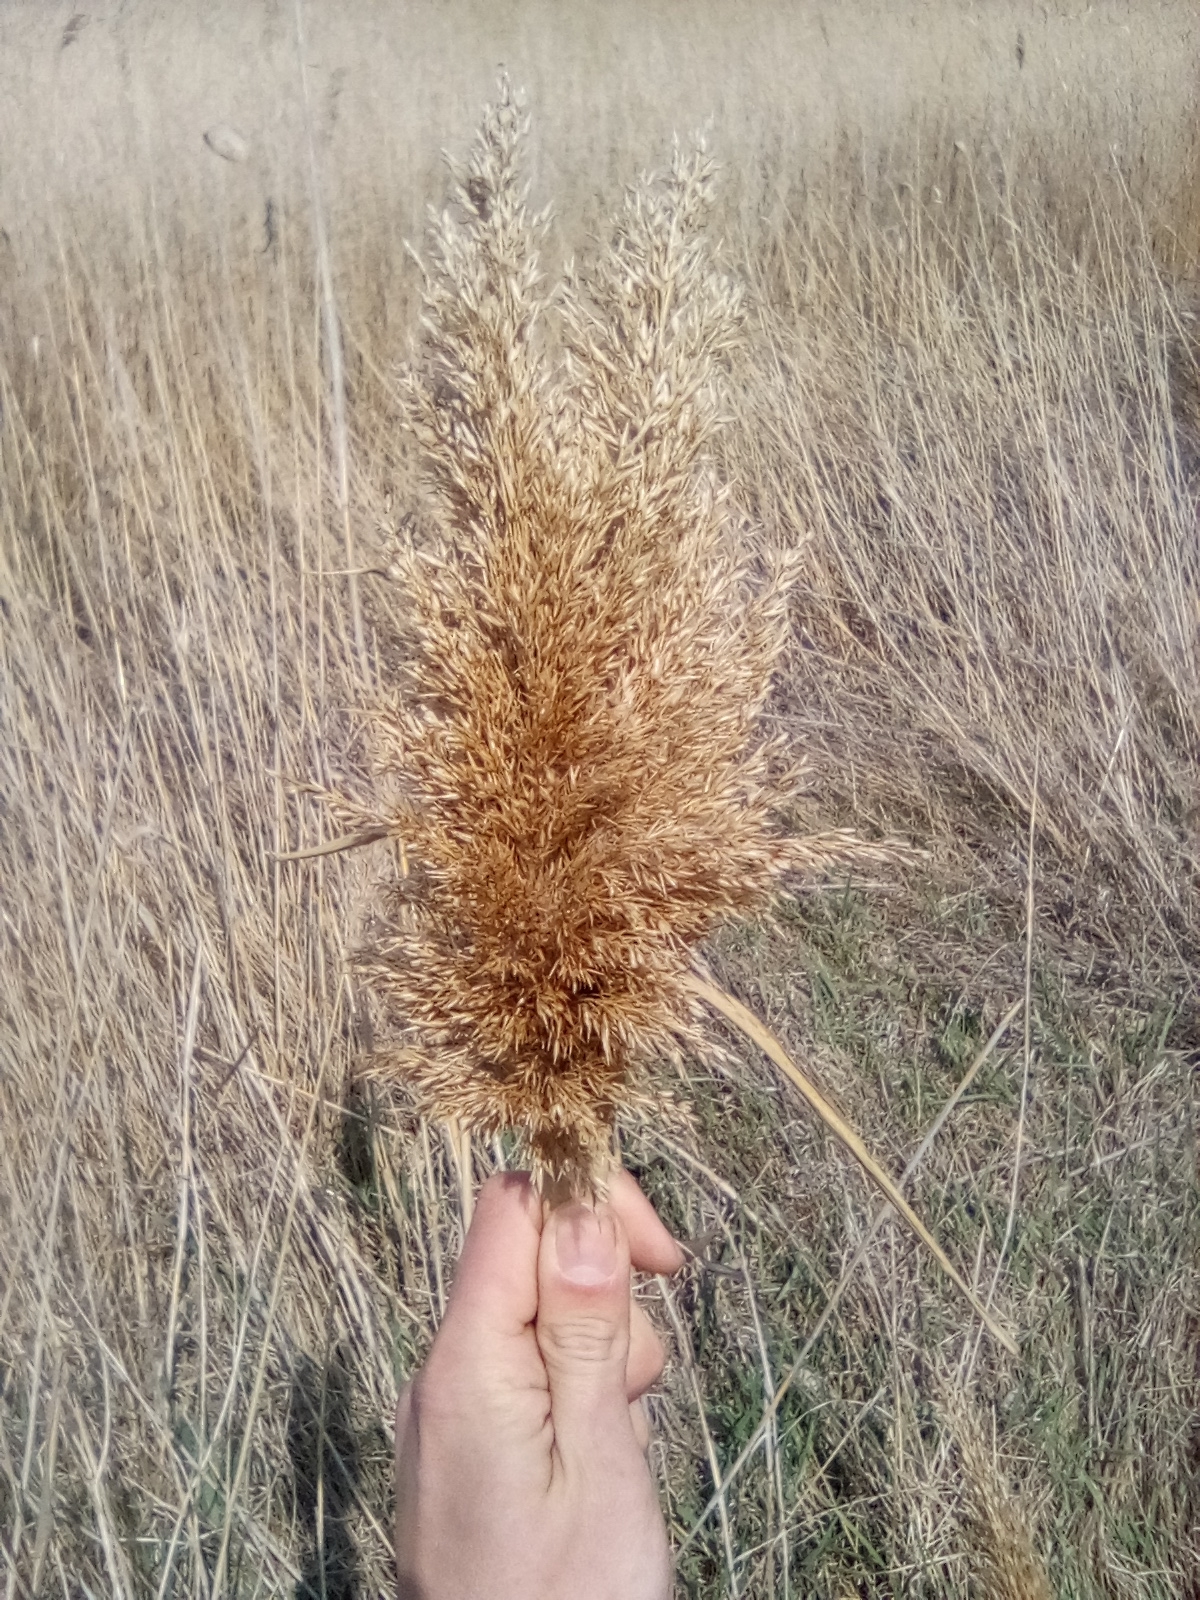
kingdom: Plantae
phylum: Tracheophyta
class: Liliopsida
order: Poales
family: Poaceae
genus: Phragmites
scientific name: Phragmites australis
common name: Common reed
